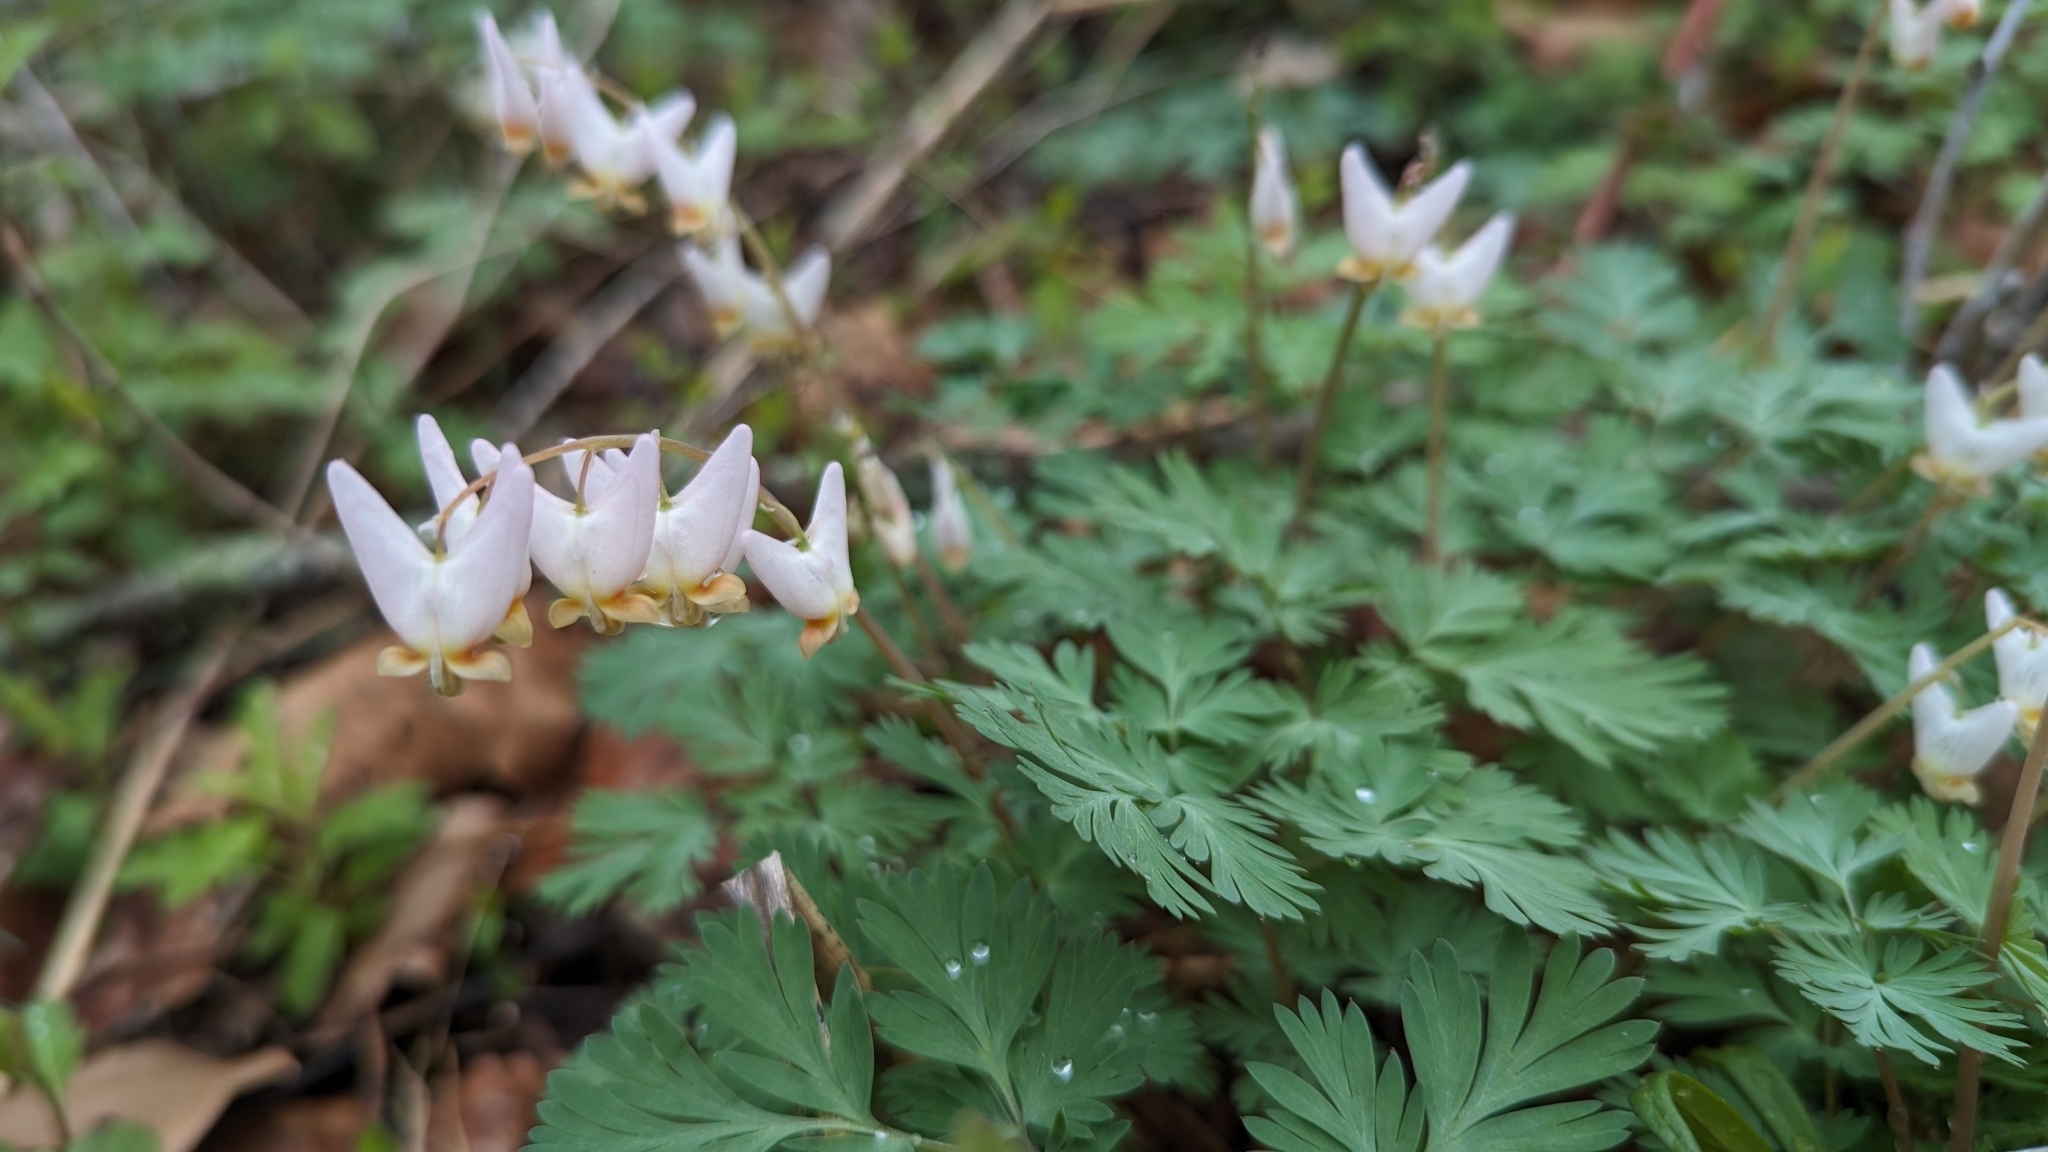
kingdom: Plantae
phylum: Tracheophyta
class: Magnoliopsida
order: Ranunculales
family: Papaveraceae
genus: Dicentra
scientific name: Dicentra cucullaria
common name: Dutchman's breeches
